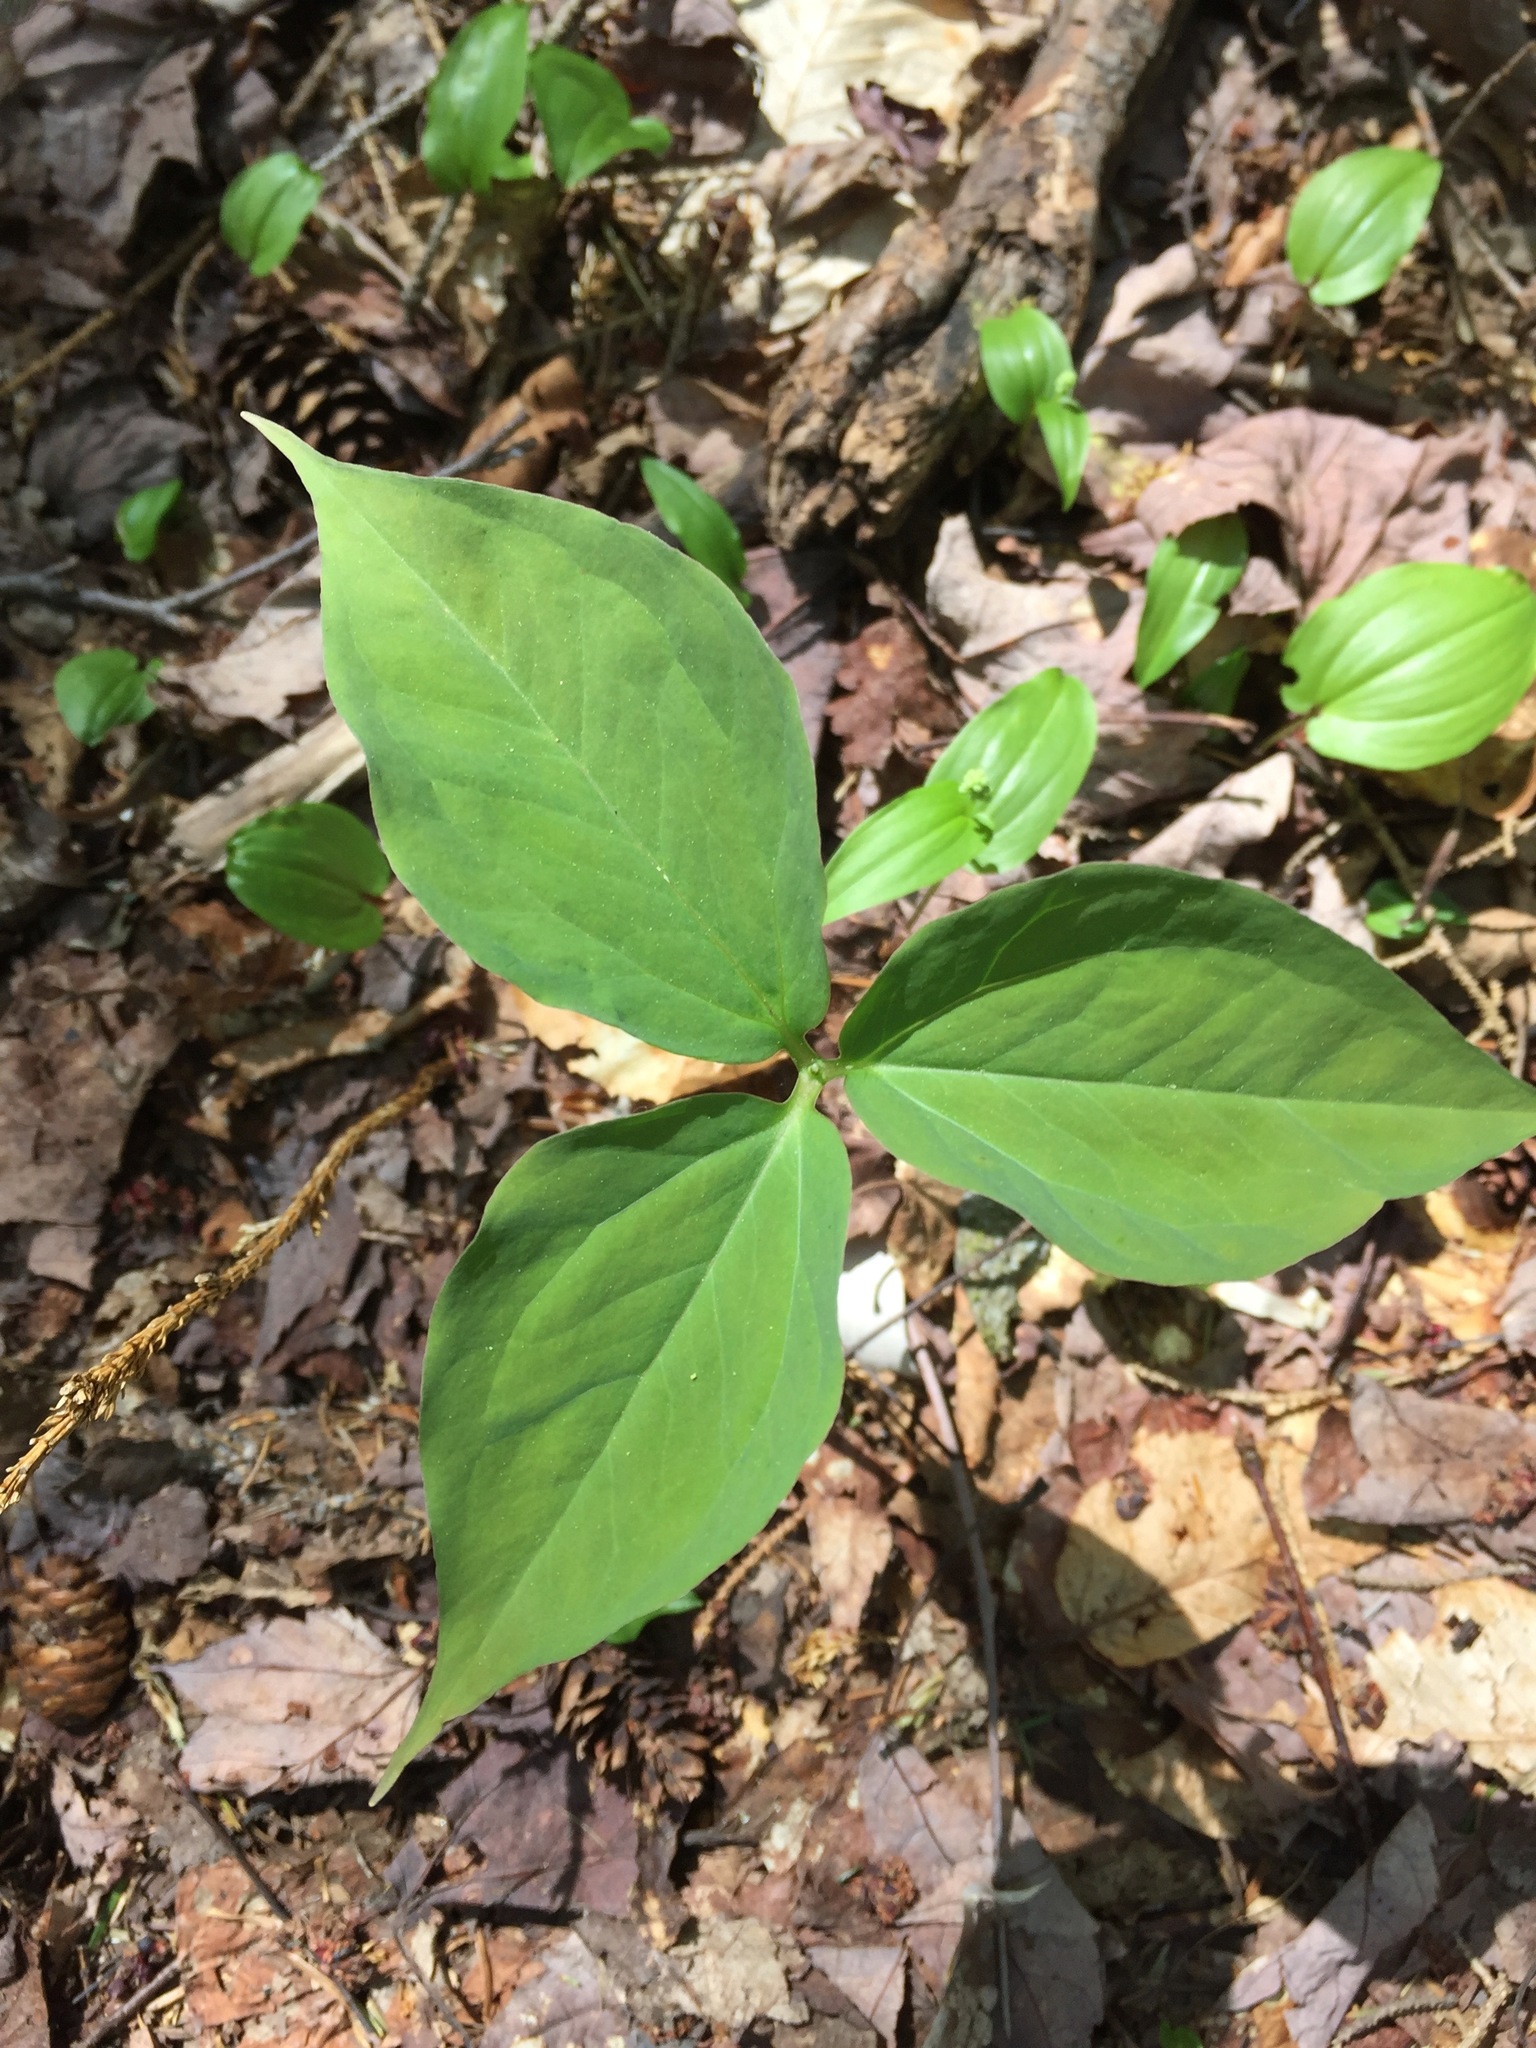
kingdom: Plantae
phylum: Tracheophyta
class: Liliopsida
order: Liliales
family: Melanthiaceae
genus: Trillium
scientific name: Trillium undulatum
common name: Paint trillium
